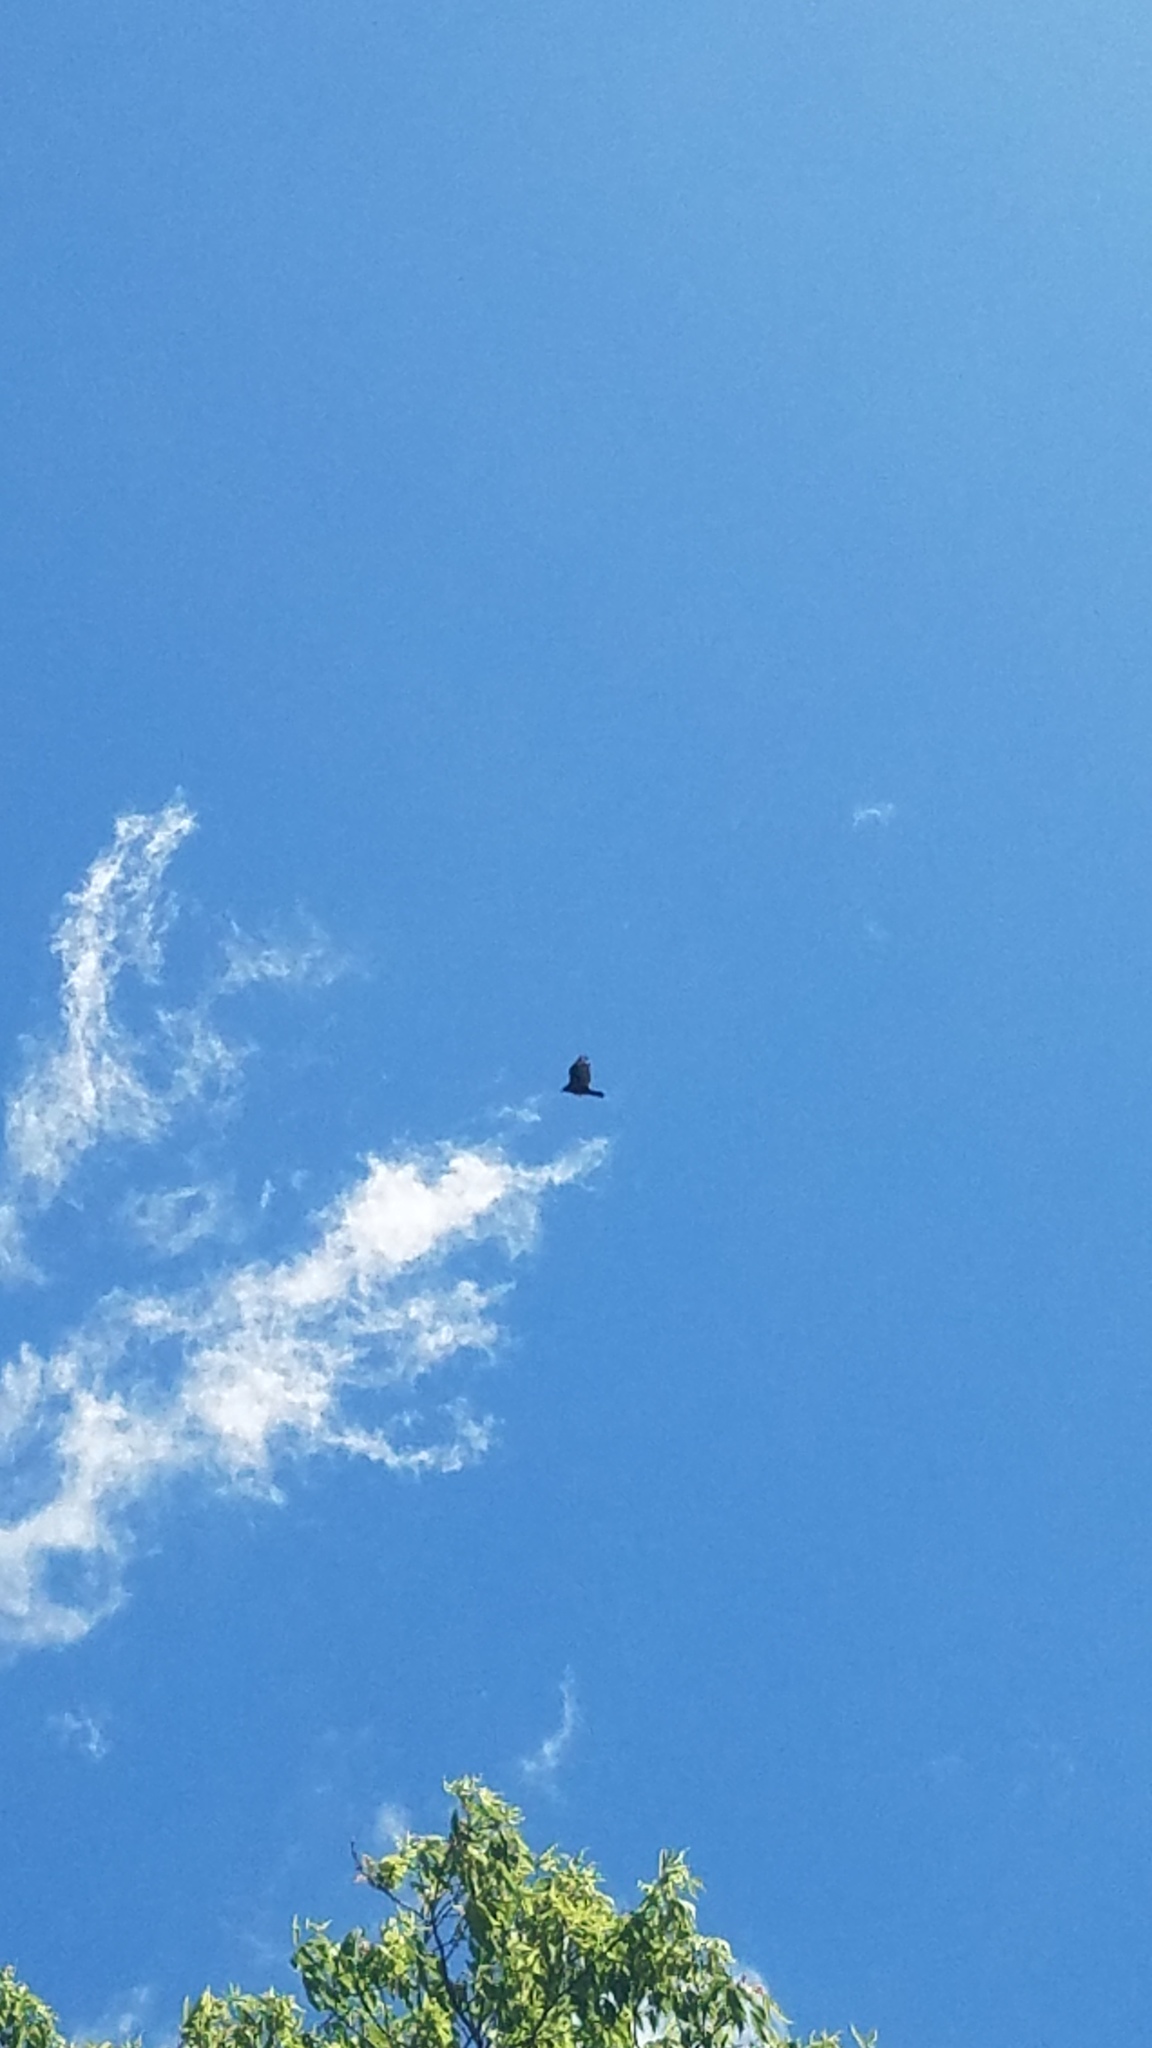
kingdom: Animalia
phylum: Chordata
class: Aves
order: Accipitriformes
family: Cathartidae
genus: Cathartes
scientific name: Cathartes aura
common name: Turkey vulture
